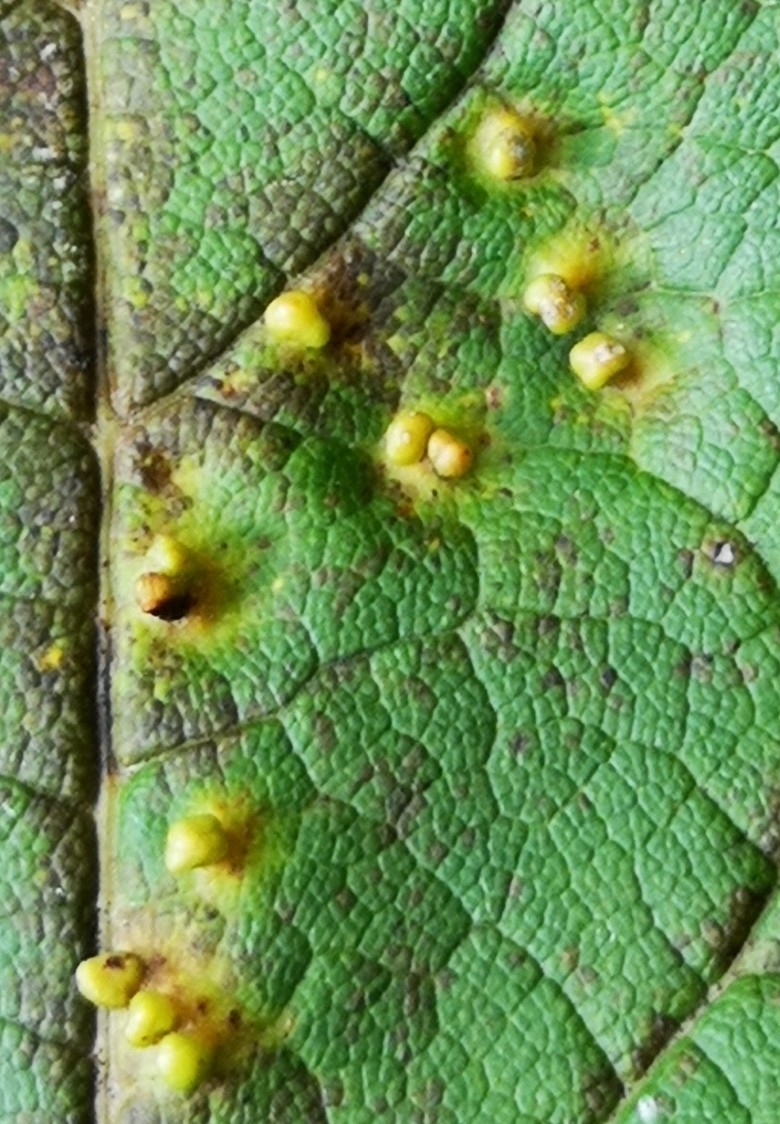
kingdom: Animalia
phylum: Arthropoda
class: Arachnida
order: Trombidiformes
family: Eriophyidae
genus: Aceria
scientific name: Aceria cephaloneus
